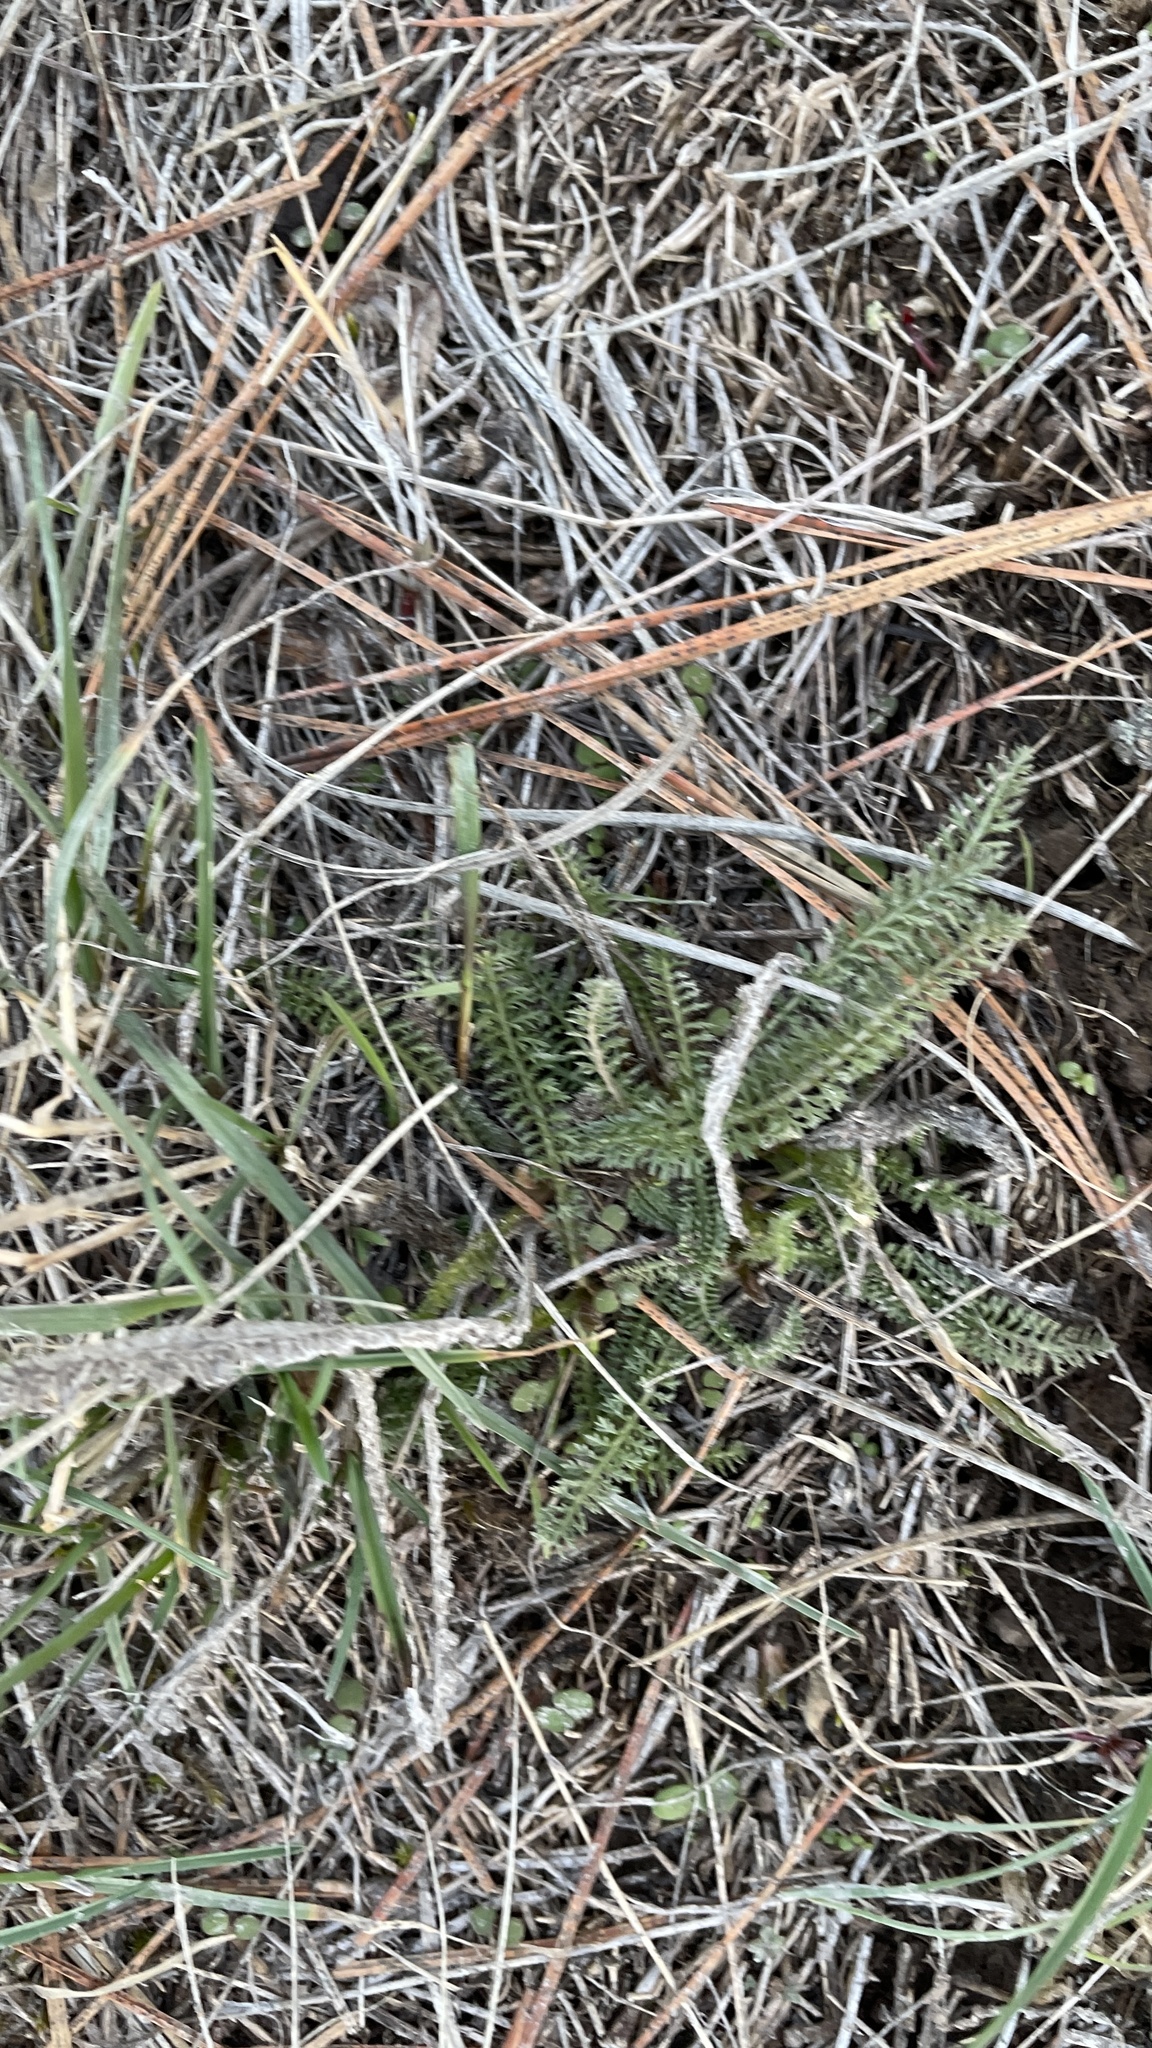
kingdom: Plantae
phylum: Tracheophyta
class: Magnoliopsida
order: Asterales
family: Asteraceae
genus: Achillea
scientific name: Achillea millefolium
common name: Yarrow
